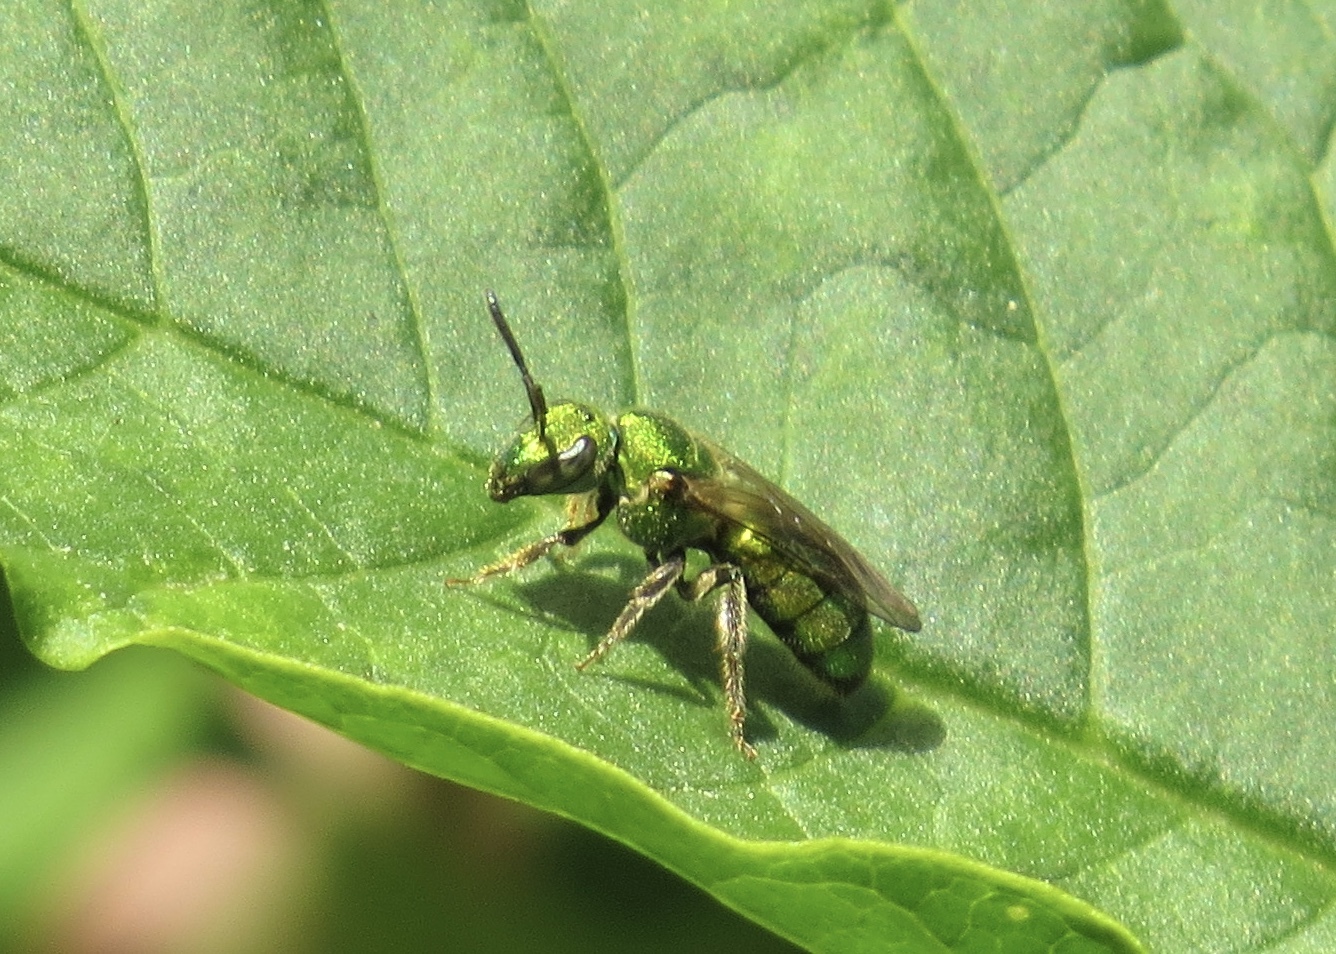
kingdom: Animalia
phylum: Arthropoda
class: Insecta
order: Hymenoptera
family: Halictidae
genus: Augochlora
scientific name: Augochlora pura
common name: Pure green sweat bee
